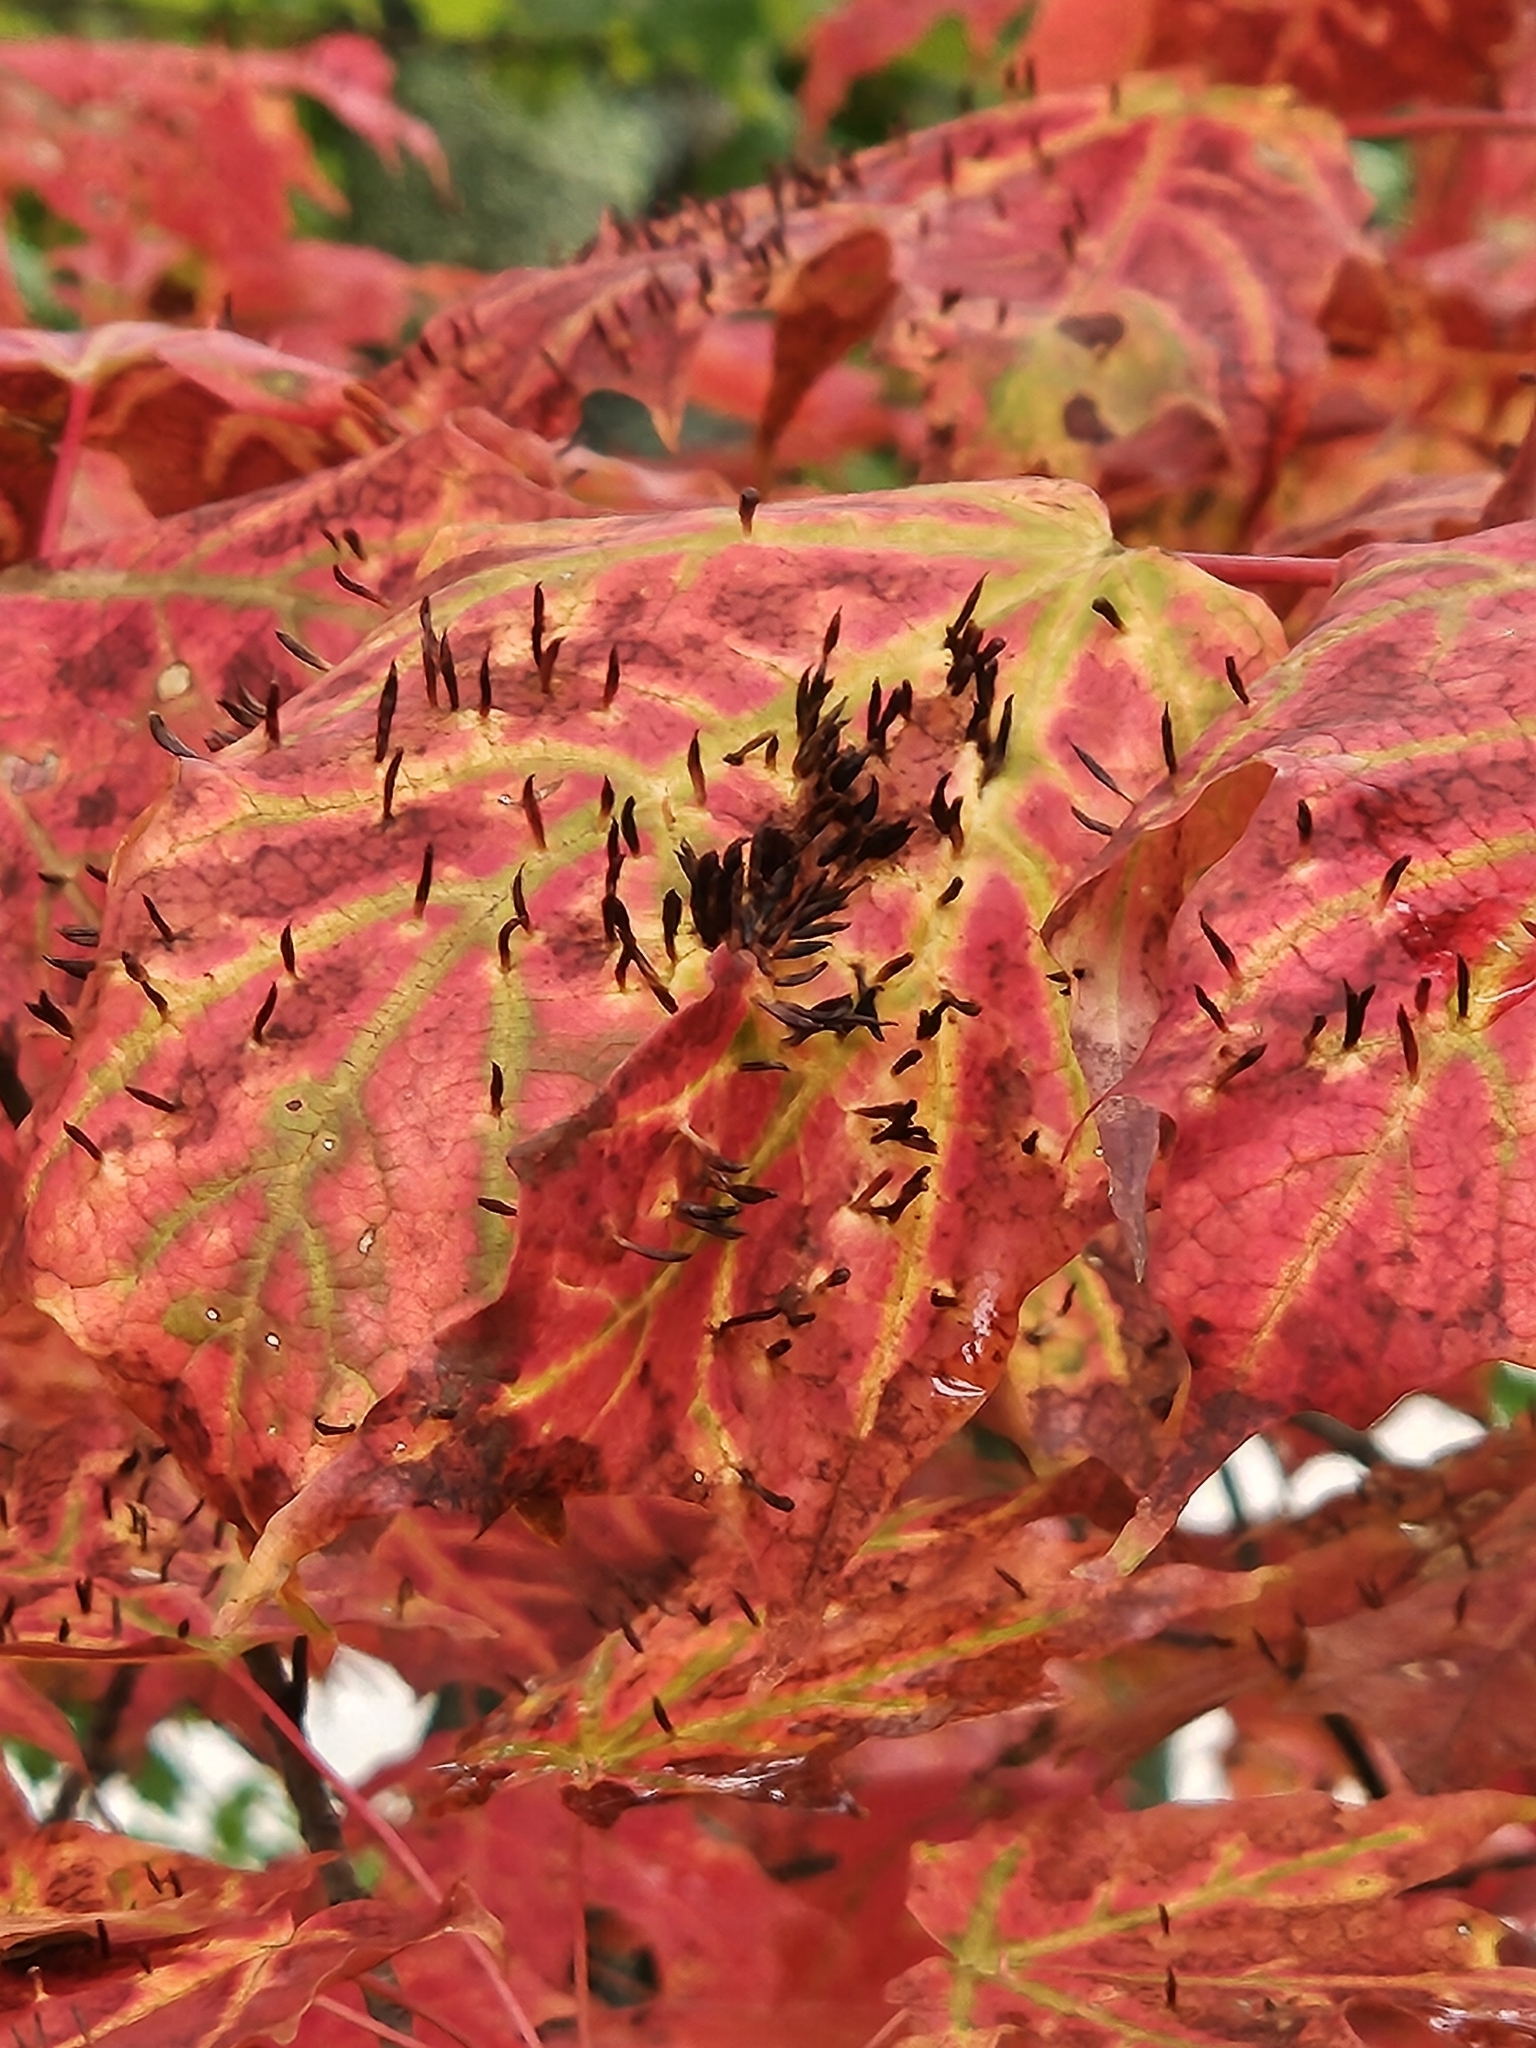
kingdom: Animalia
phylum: Arthropoda
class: Arachnida
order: Trombidiformes
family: Eriophyidae
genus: Vasates
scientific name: Vasates aceriscrumena
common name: Maple spindle gall mite
